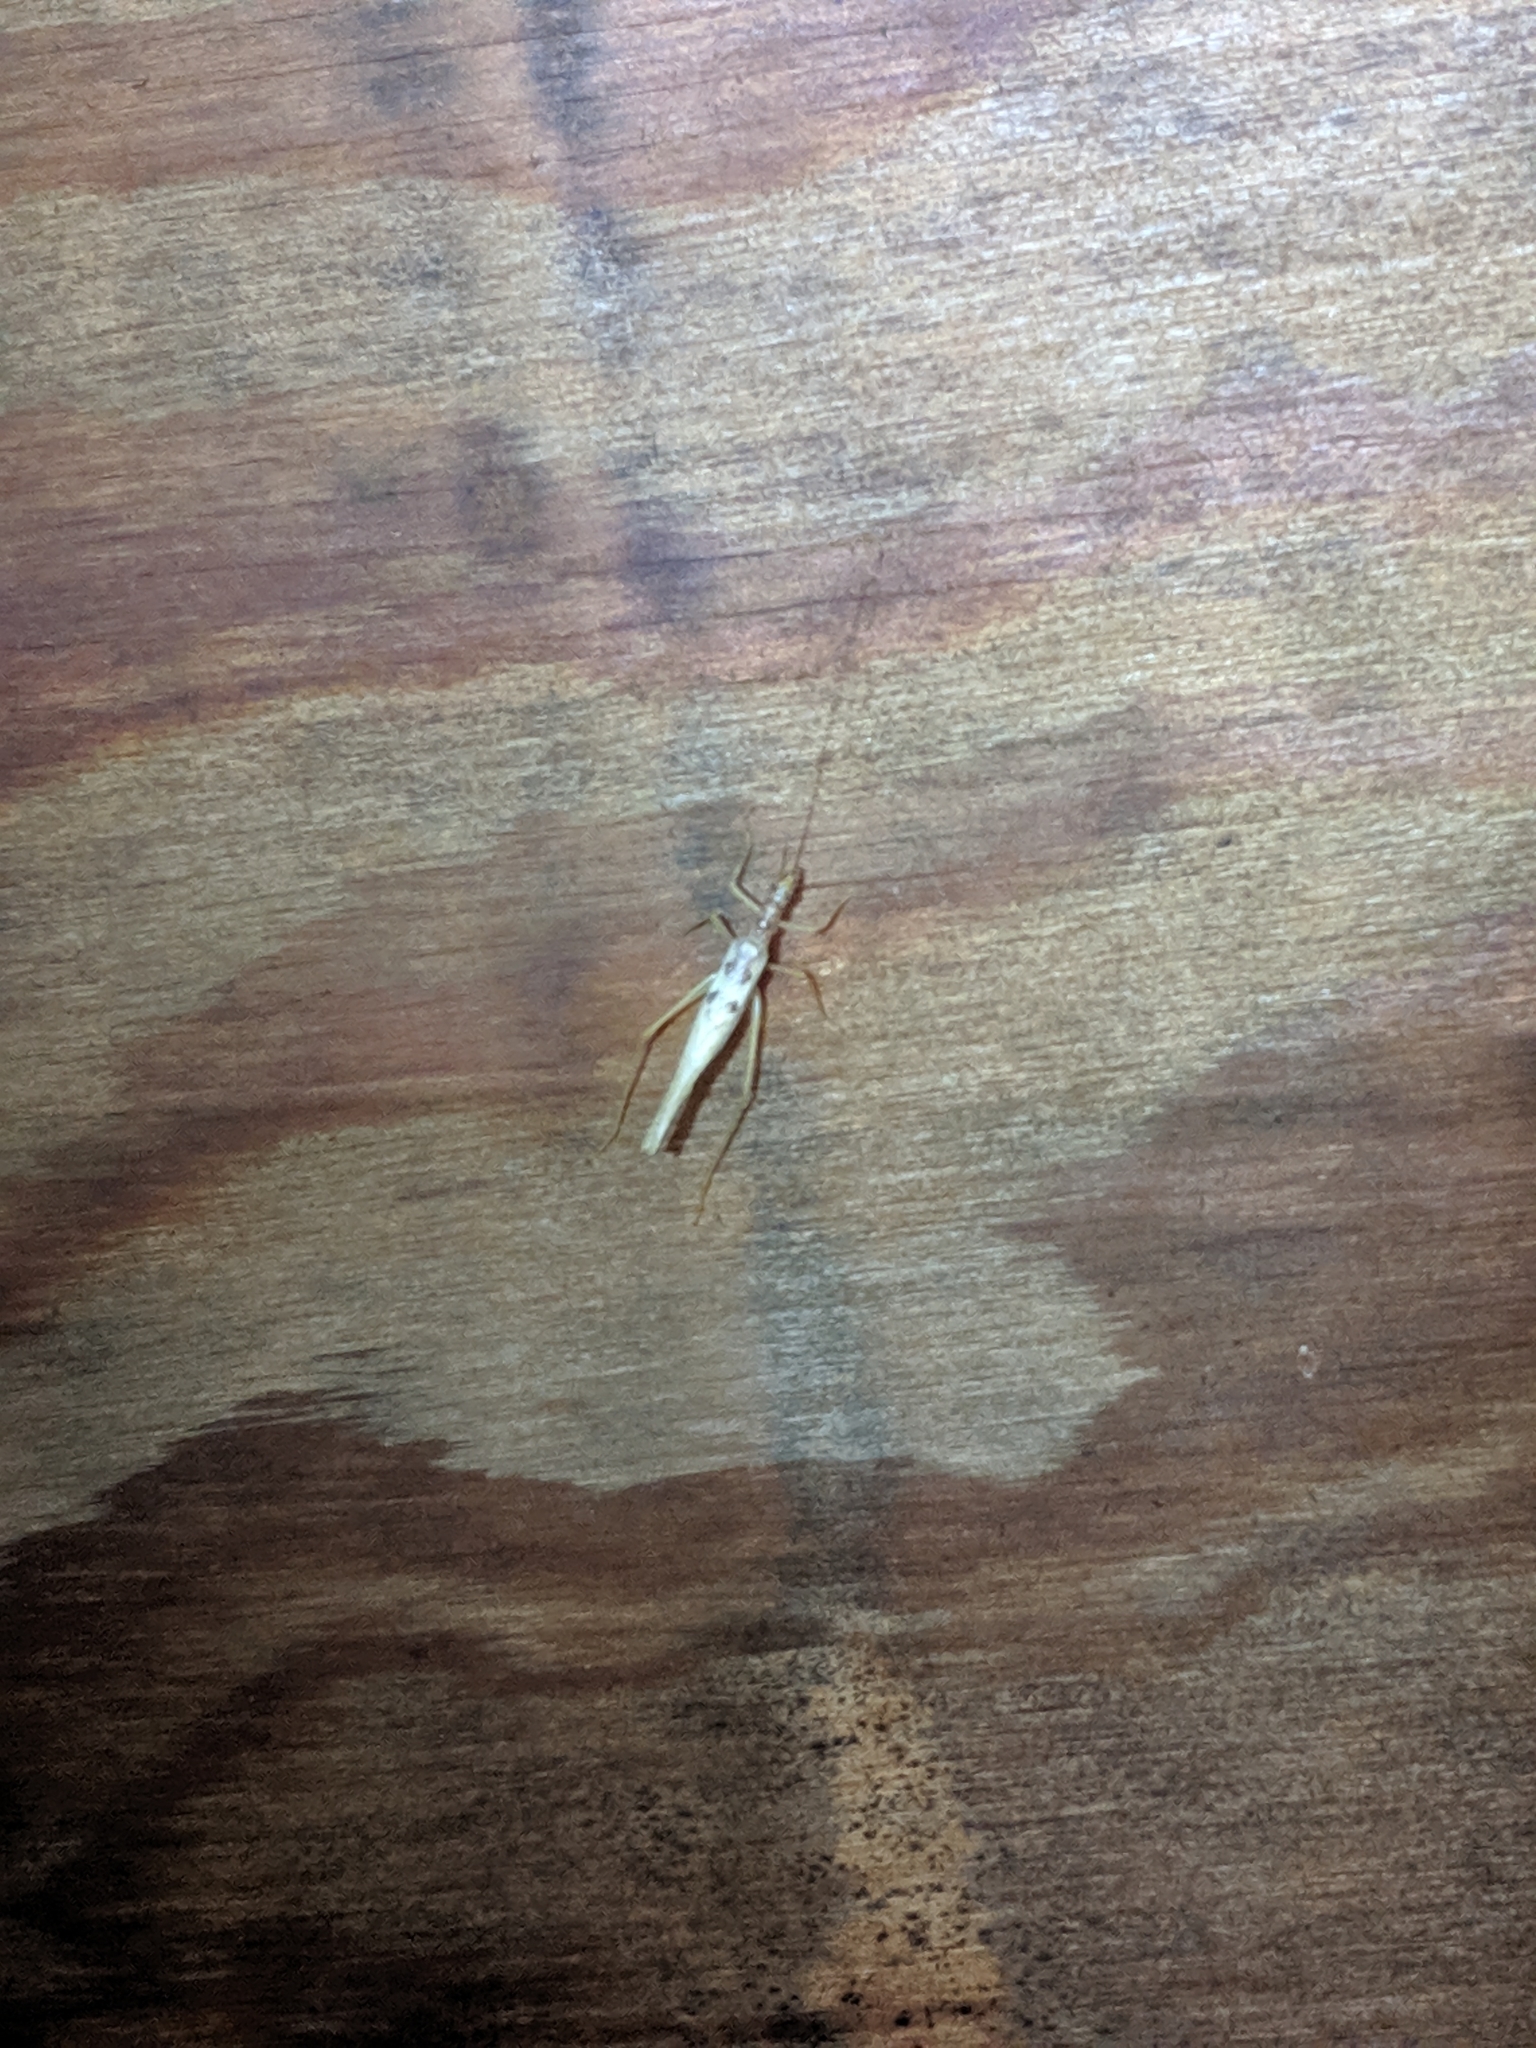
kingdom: Animalia
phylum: Arthropoda
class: Insecta
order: Orthoptera
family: Gryllidae
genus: Neoxabea
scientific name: Neoxabea bipunctata
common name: Two-spotted tree cricket
